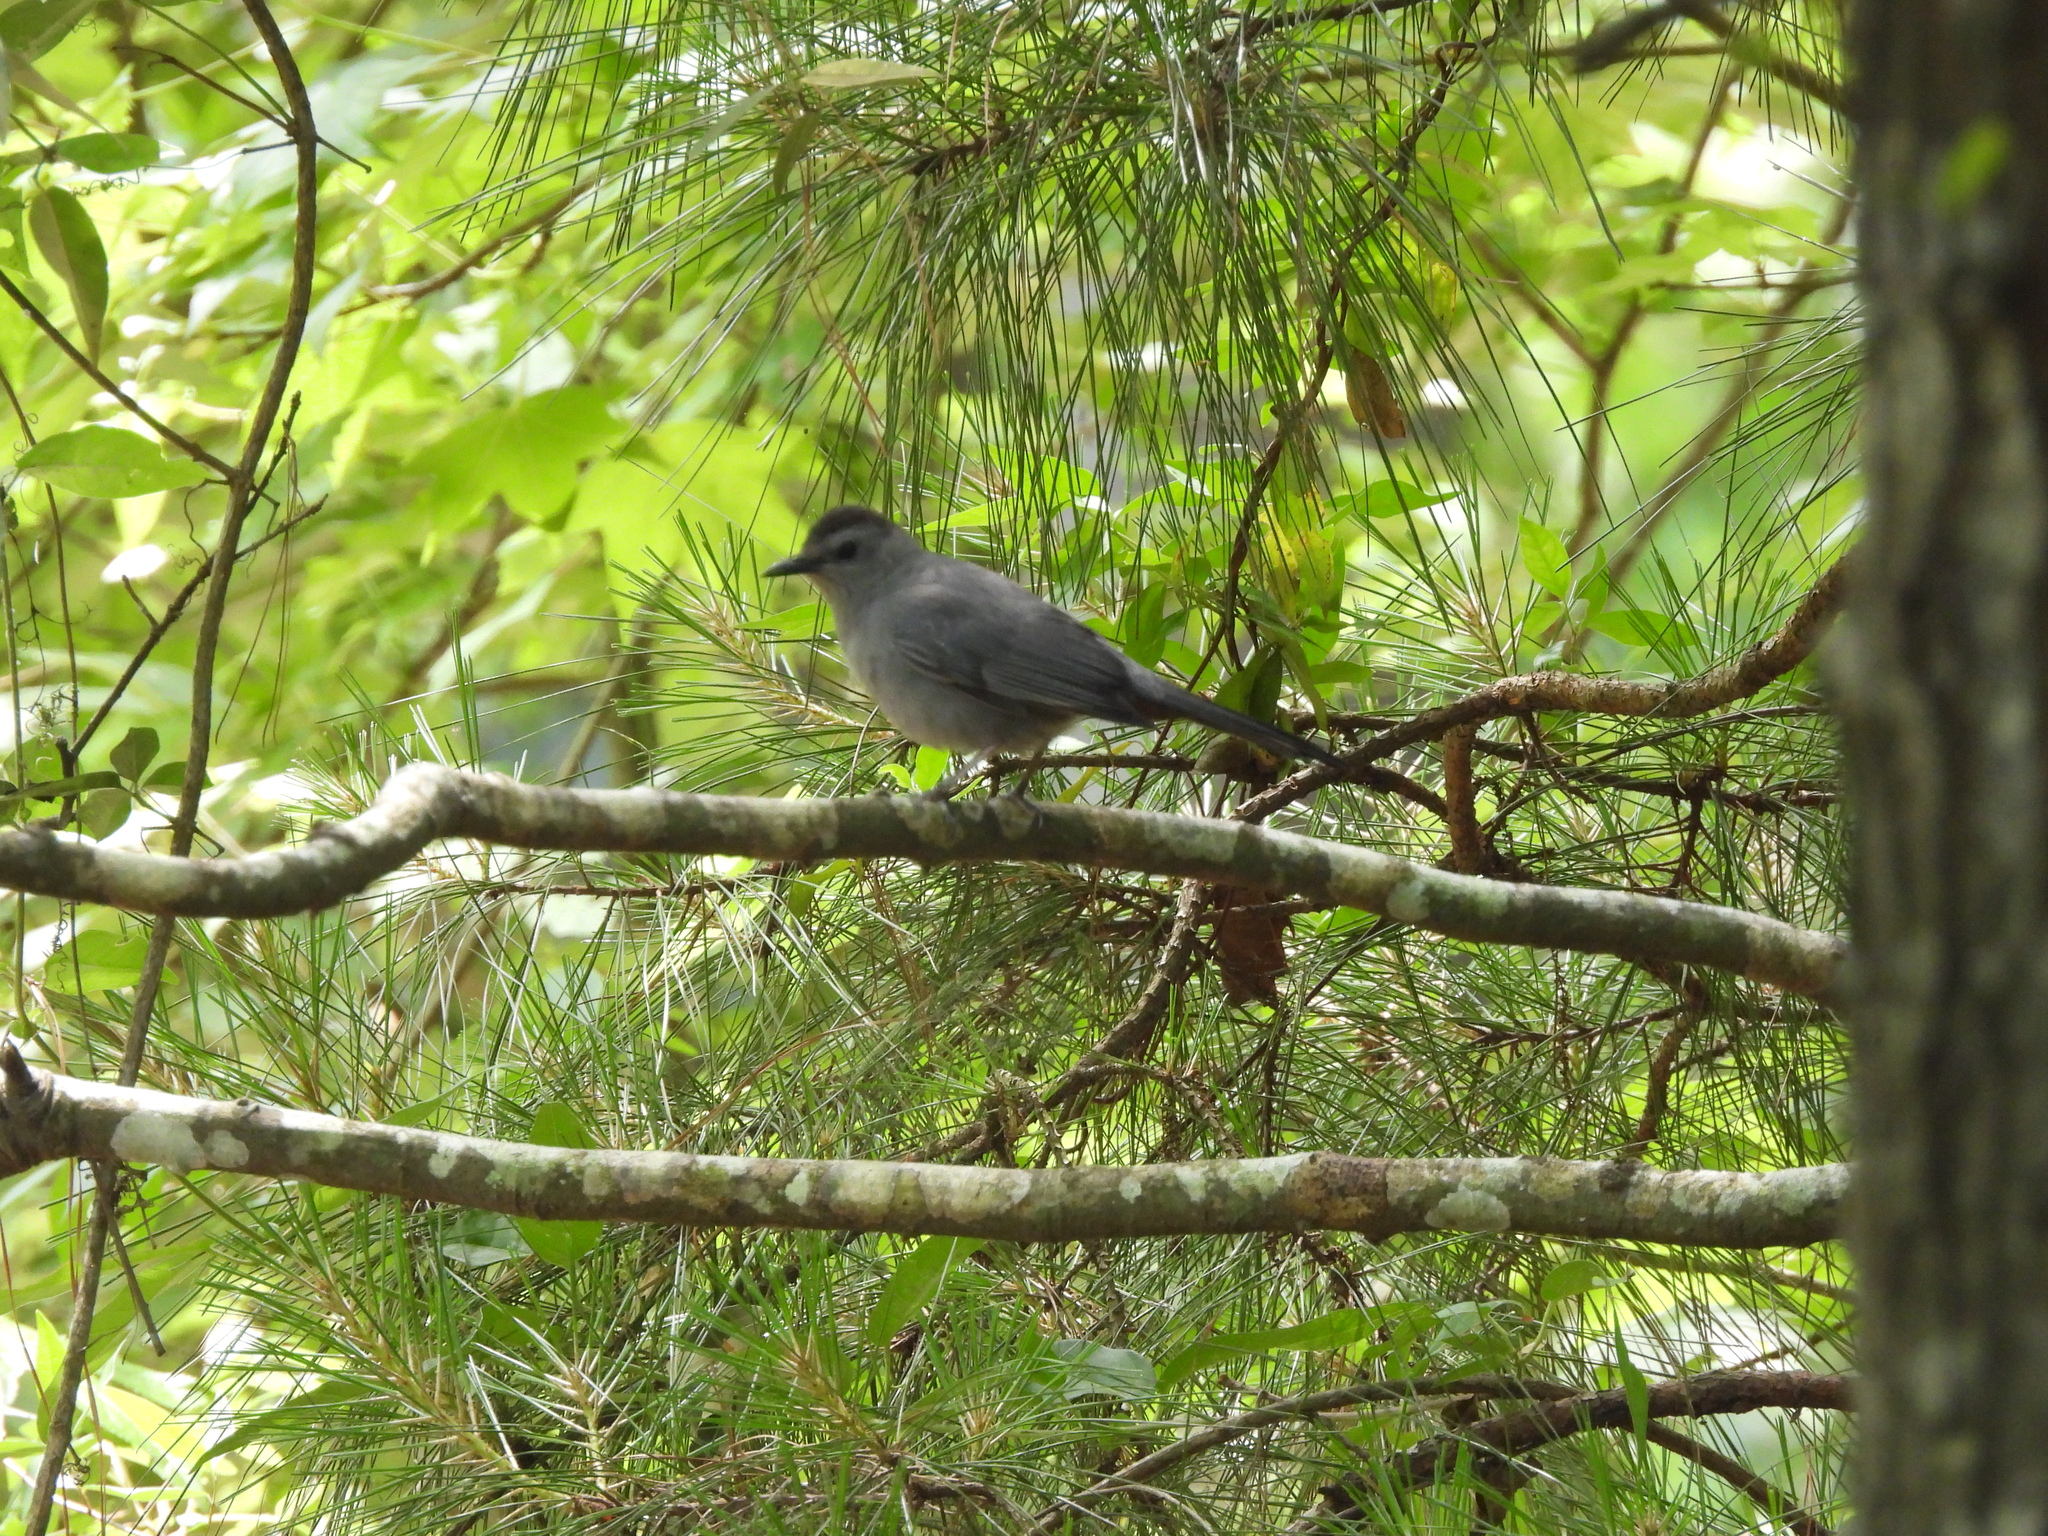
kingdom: Animalia
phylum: Chordata
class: Aves
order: Passeriformes
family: Mimidae
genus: Dumetella
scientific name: Dumetella carolinensis
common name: Gray catbird
